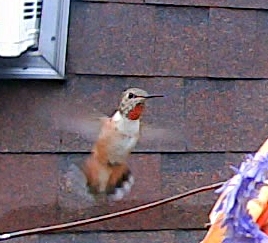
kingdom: Animalia
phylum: Chordata
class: Aves
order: Apodiformes
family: Trochilidae
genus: Selasphorus
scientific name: Selasphorus rufus
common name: Rufous hummingbird
